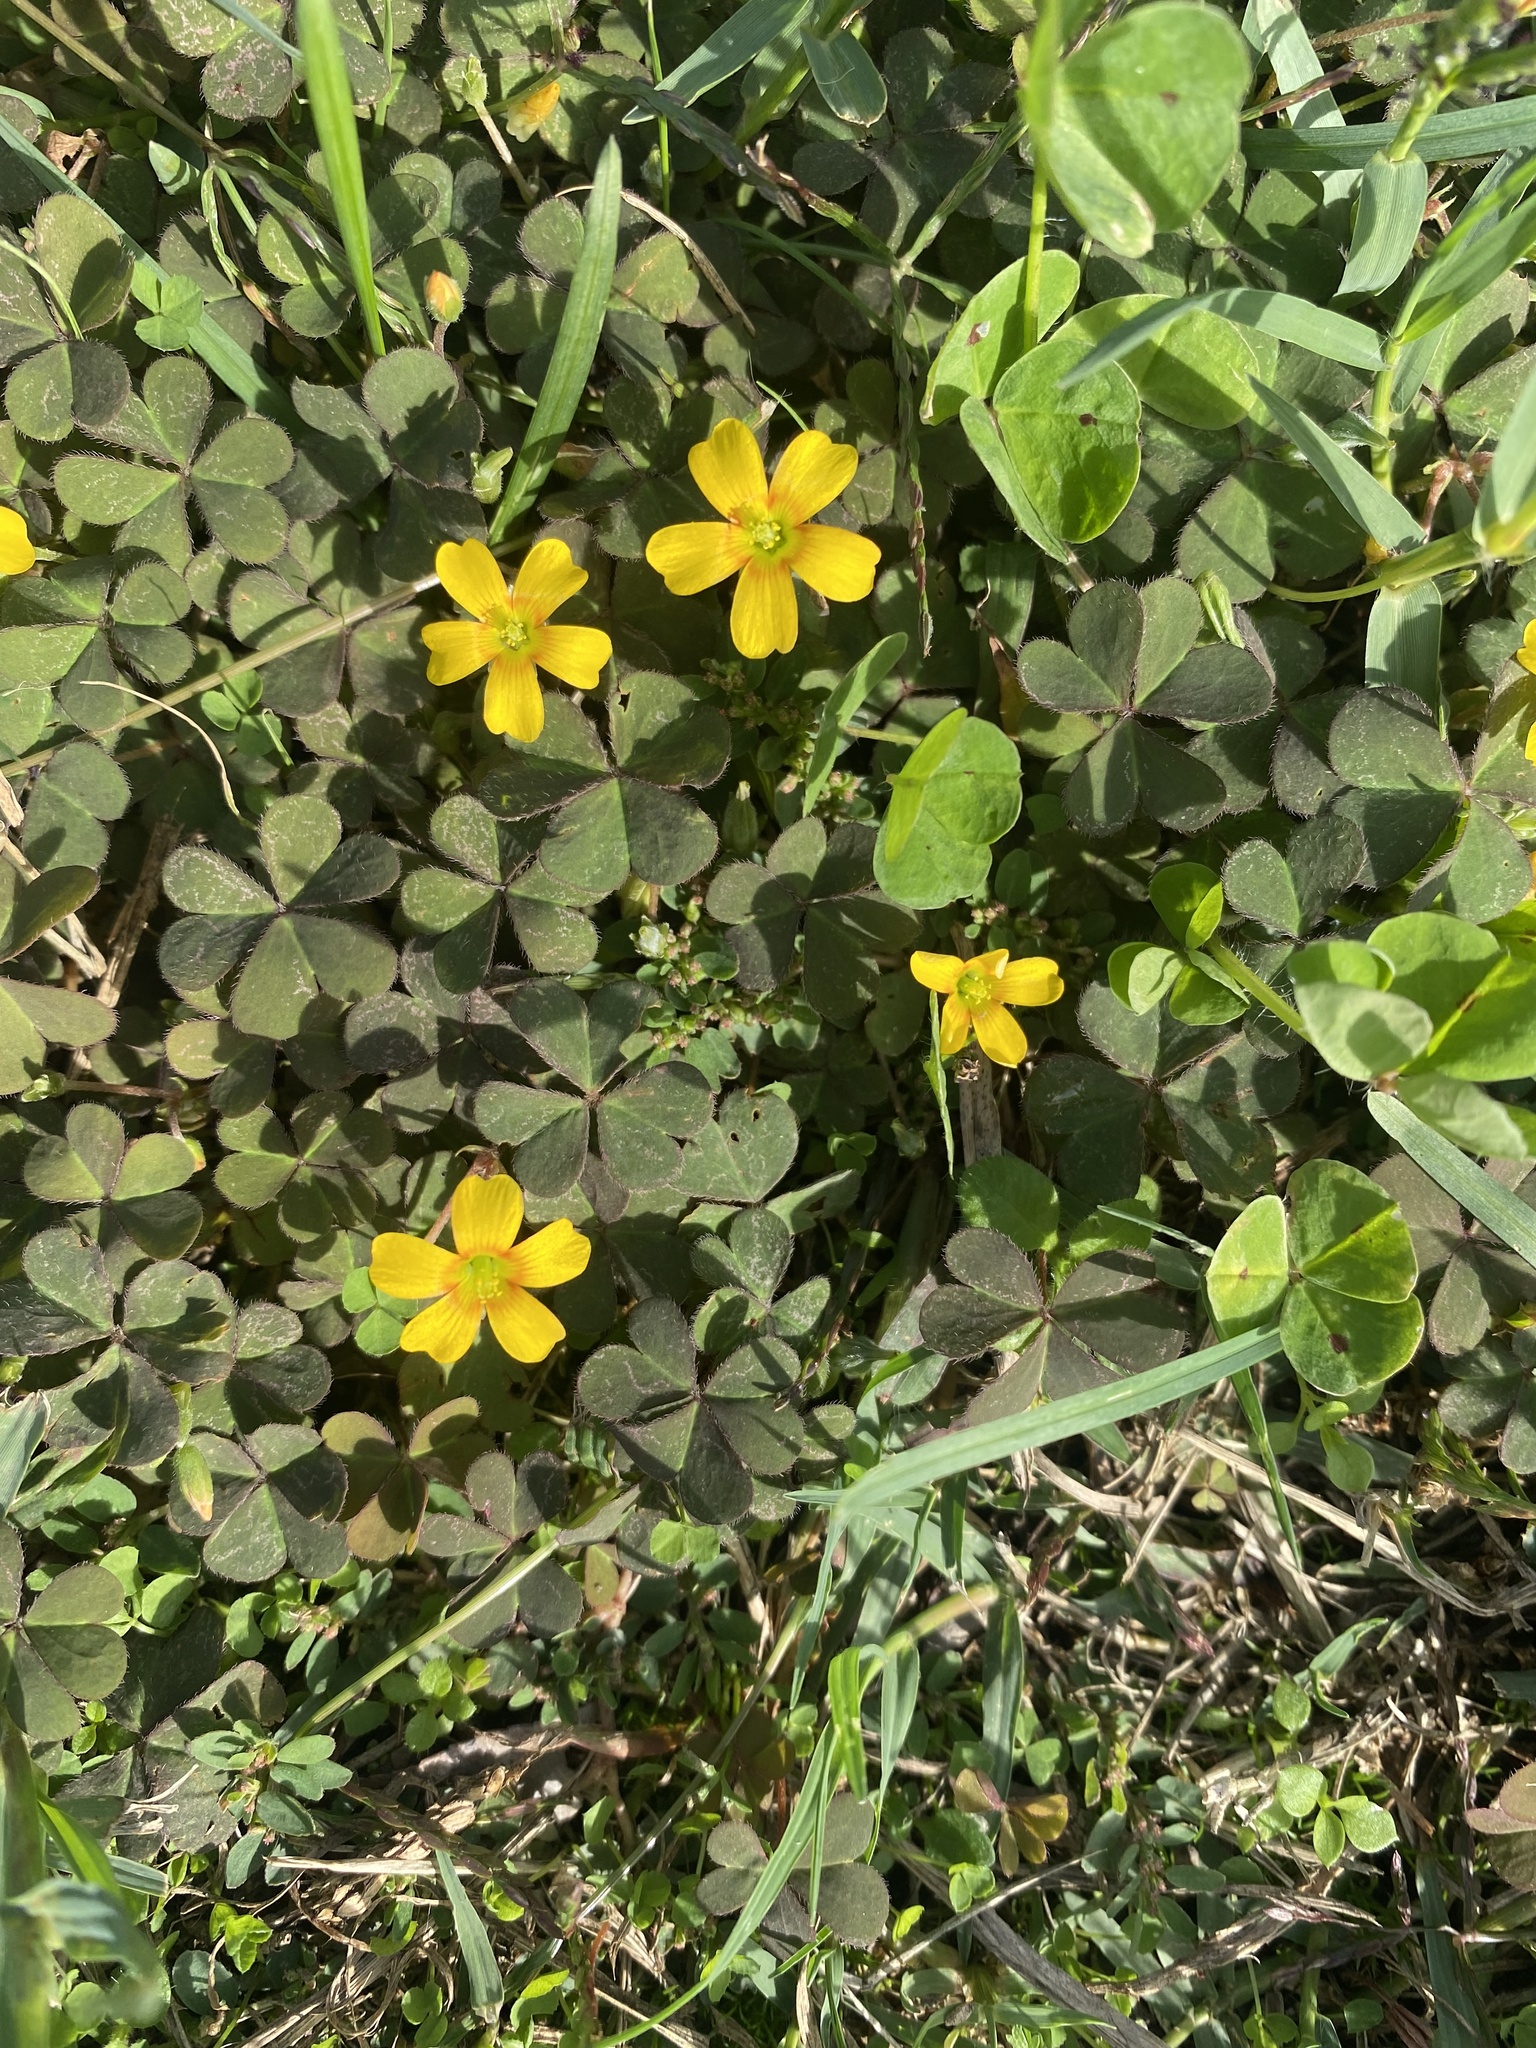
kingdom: Plantae
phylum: Tracheophyta
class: Magnoliopsida
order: Oxalidales
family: Oxalidaceae
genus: Oxalis
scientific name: Oxalis corniculata
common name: Procumbent yellow-sorrel
